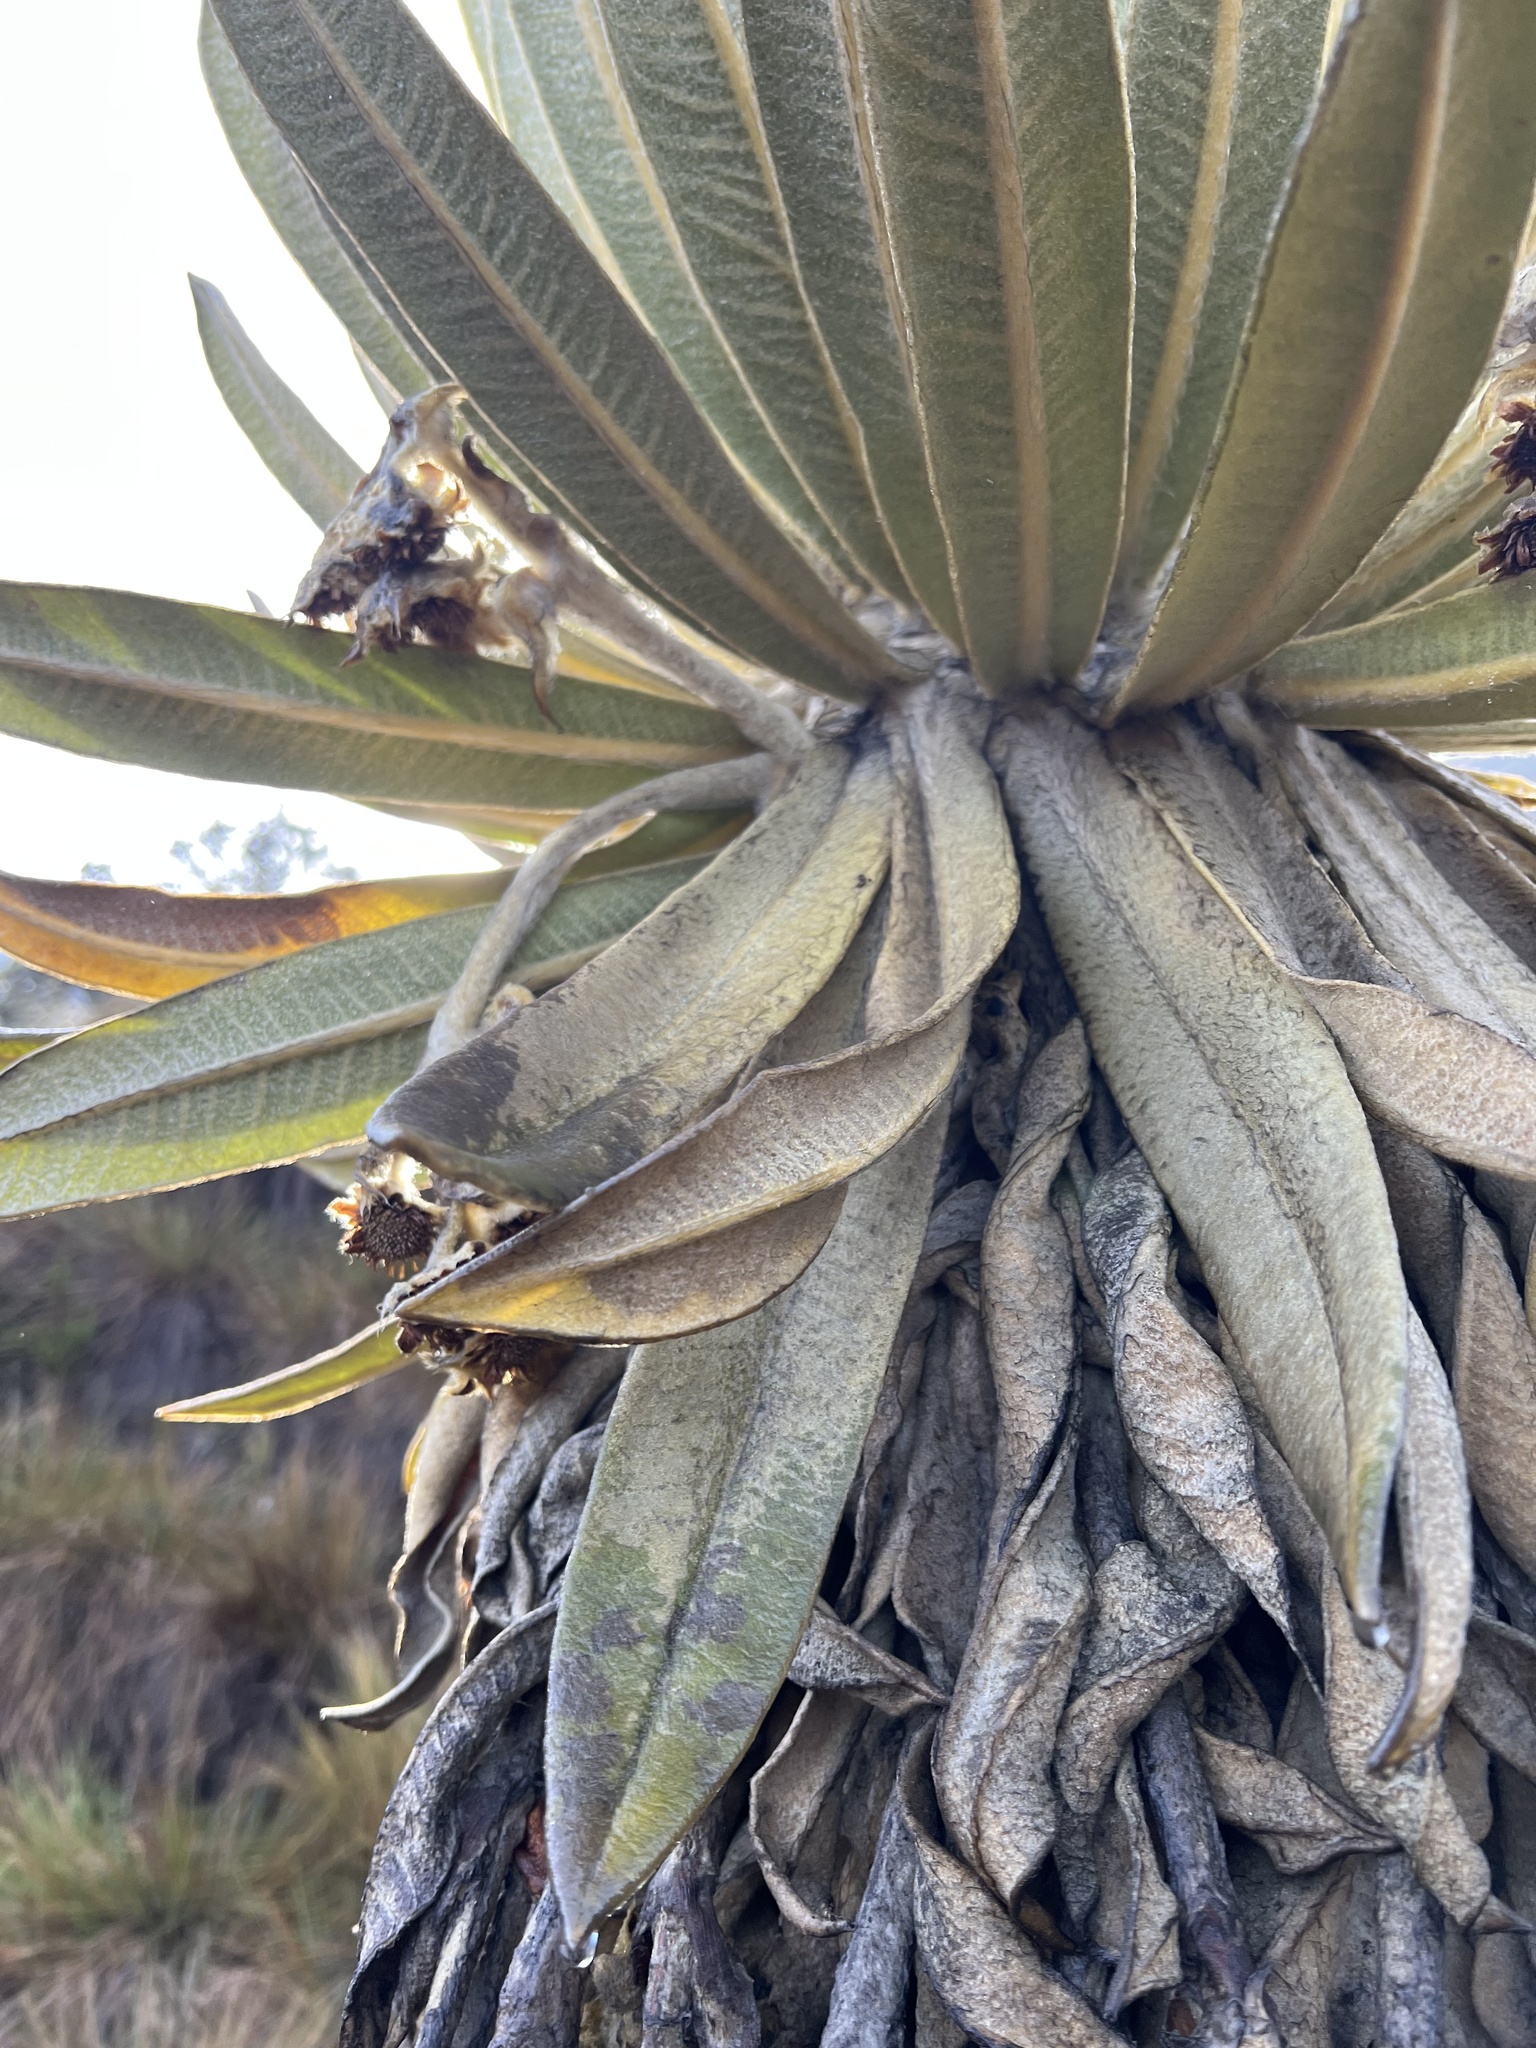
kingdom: Plantae
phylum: Tracheophyta
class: Magnoliopsida
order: Asterales
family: Asteraceae
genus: Espeletia
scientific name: Espeletia hartwegiana
